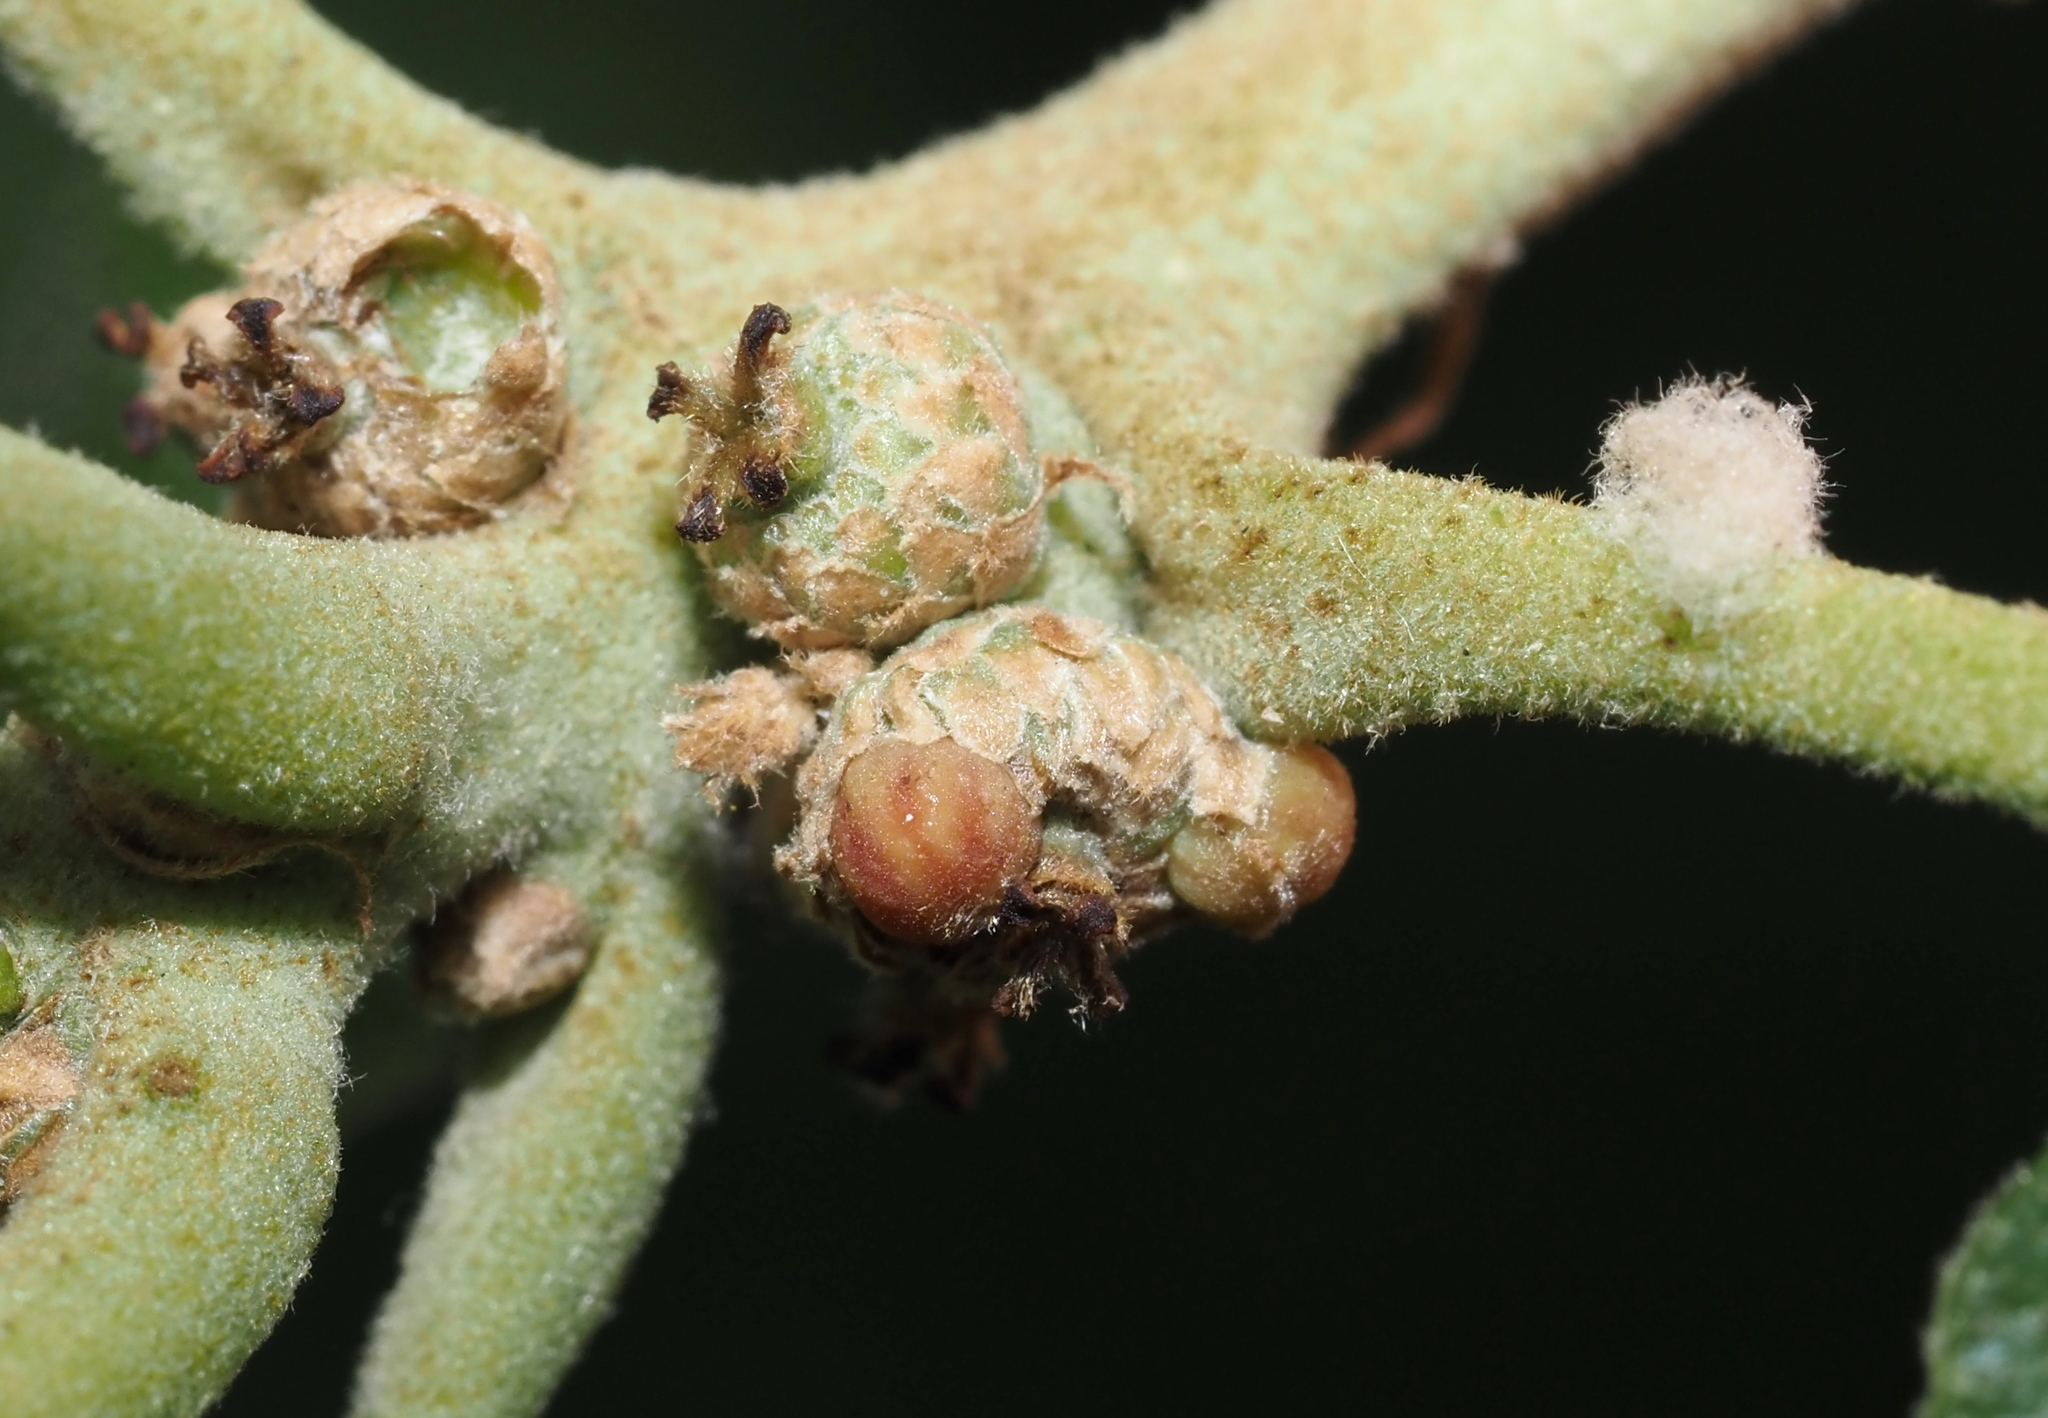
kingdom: Animalia
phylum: Arthropoda
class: Insecta
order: Hymenoptera
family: Cynipidae
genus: Callirhytis
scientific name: Callirhytis
